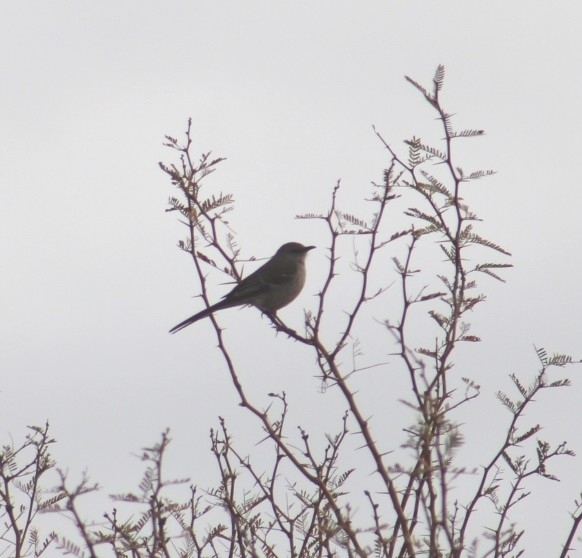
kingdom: Animalia
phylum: Chordata
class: Aves
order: Passeriformes
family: Mimidae
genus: Mimus
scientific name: Mimus polyglottos
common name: Northern mockingbird
